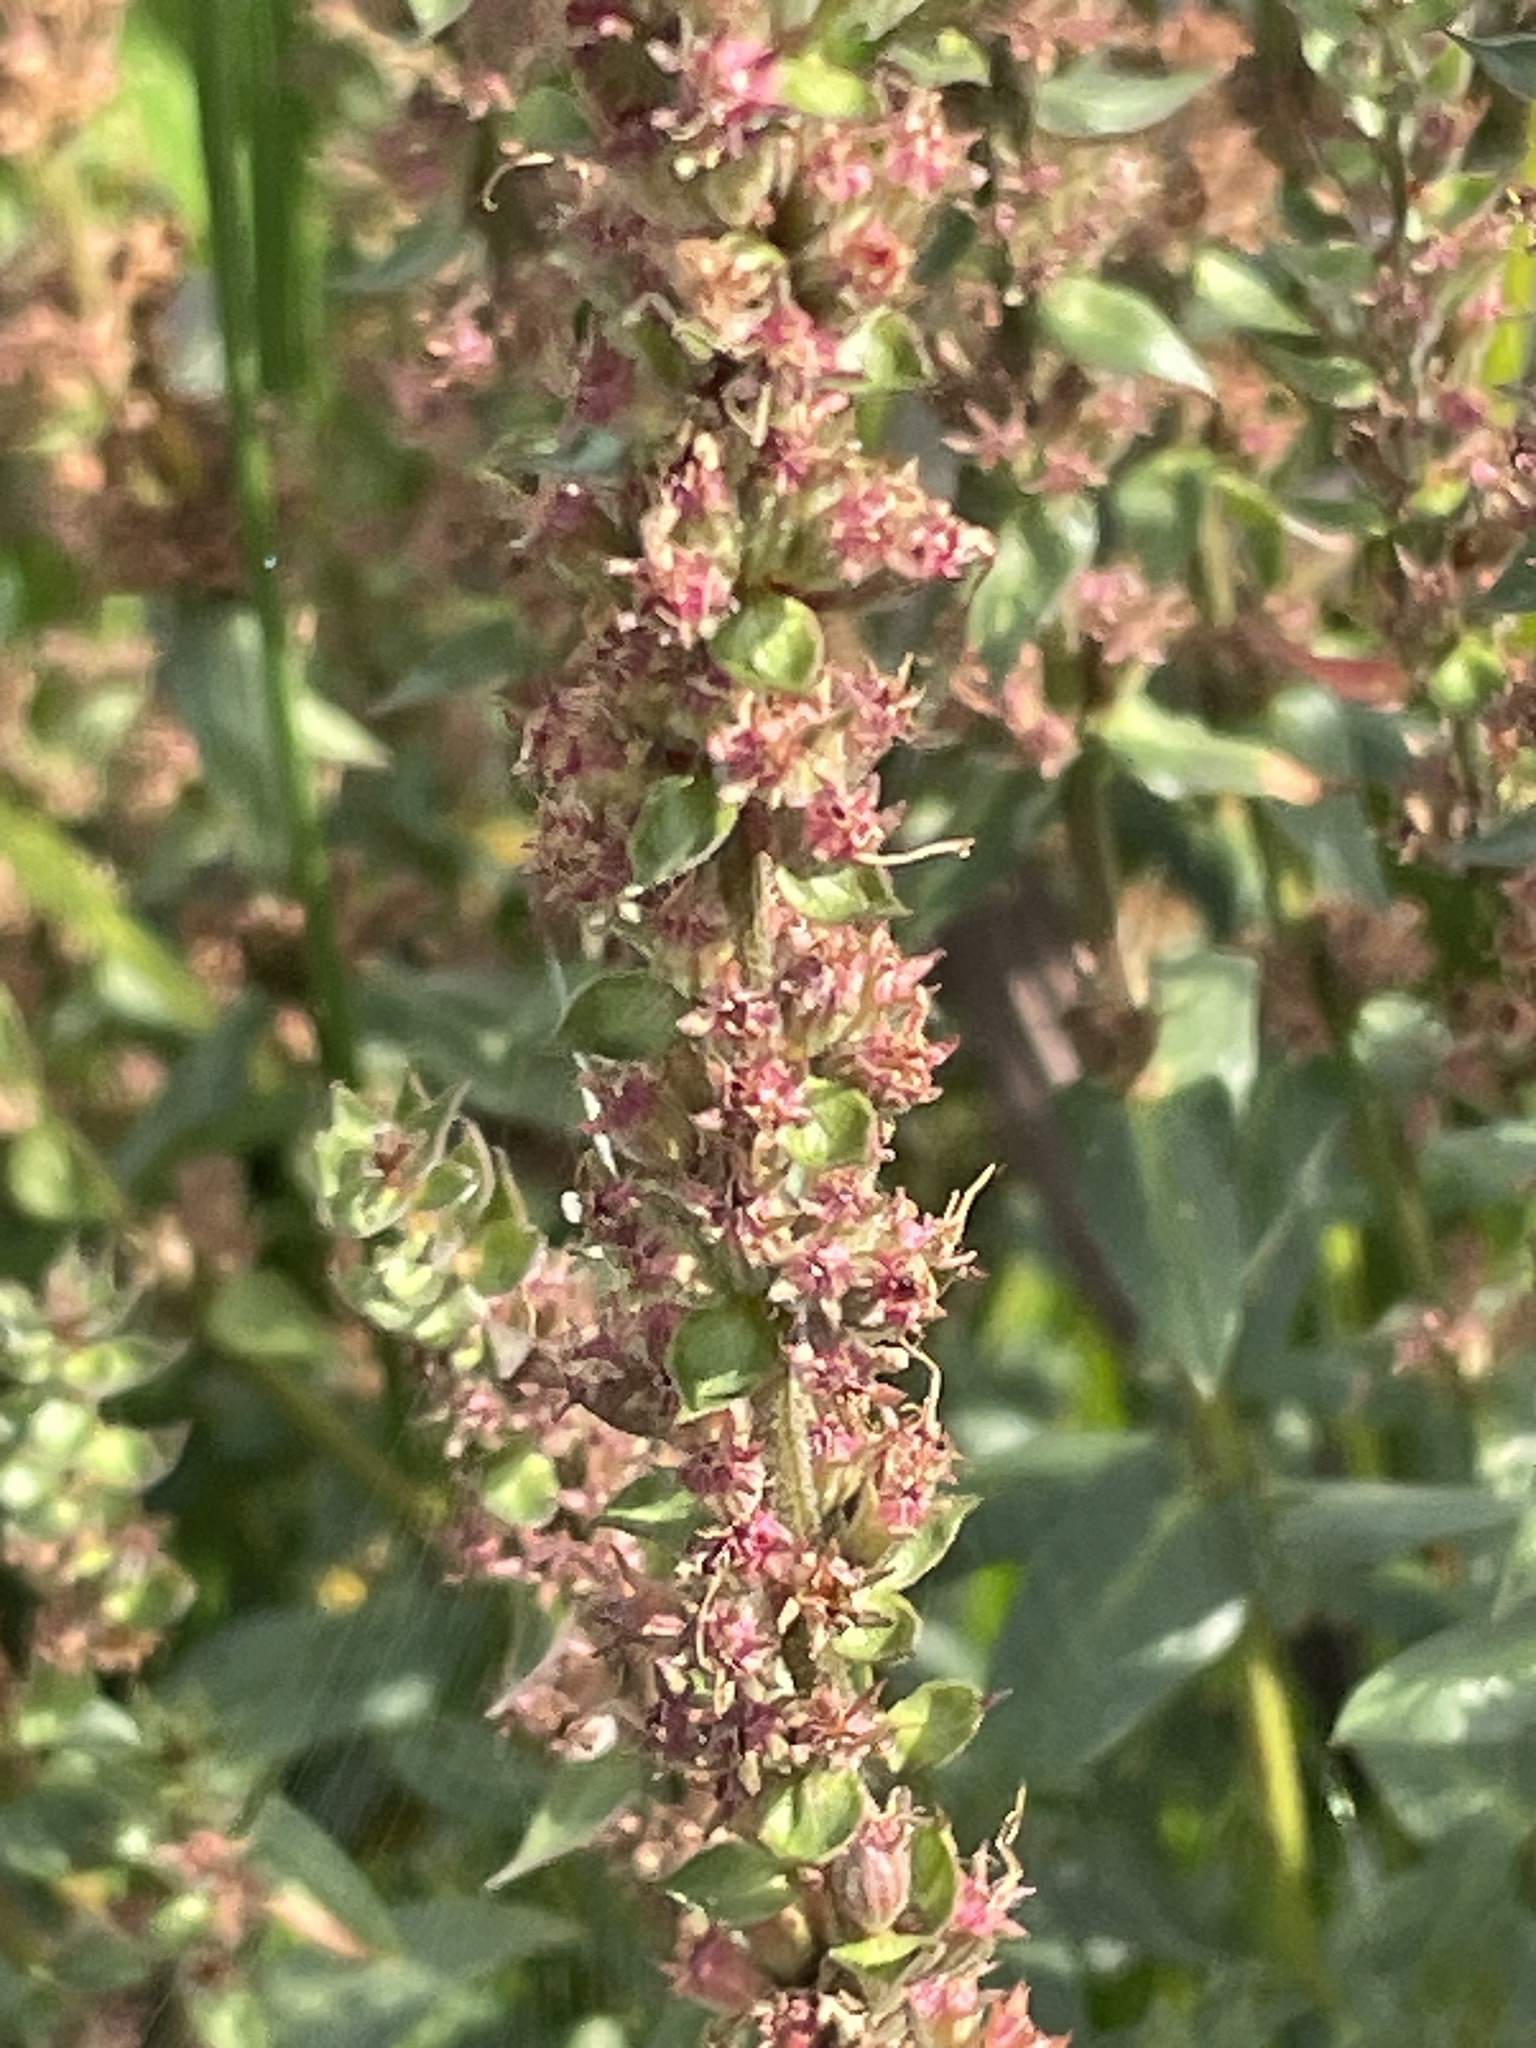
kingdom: Plantae
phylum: Tracheophyta
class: Magnoliopsida
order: Myrtales
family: Lythraceae
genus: Lythrum
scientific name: Lythrum salicaria
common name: Purple loosestrife
